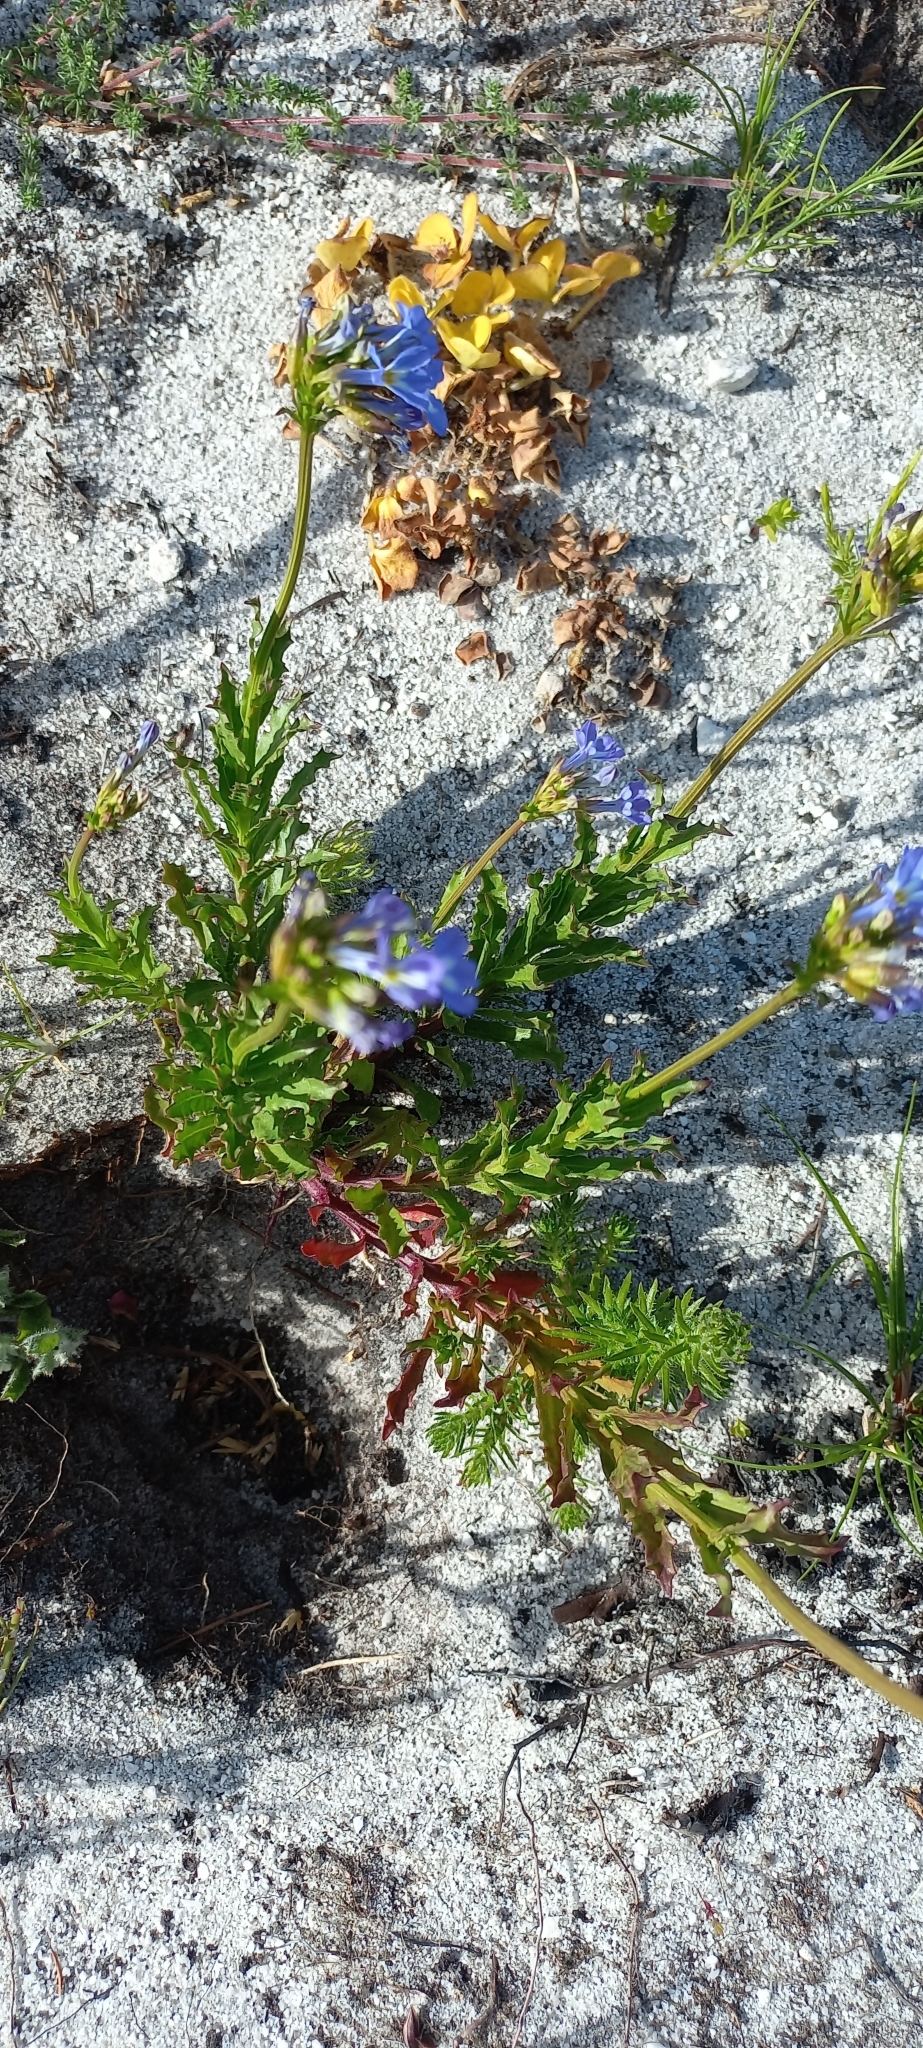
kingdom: Plantae
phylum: Tracheophyta
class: Magnoliopsida
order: Asterales
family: Campanulaceae
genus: Lobelia
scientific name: Lobelia comosa
